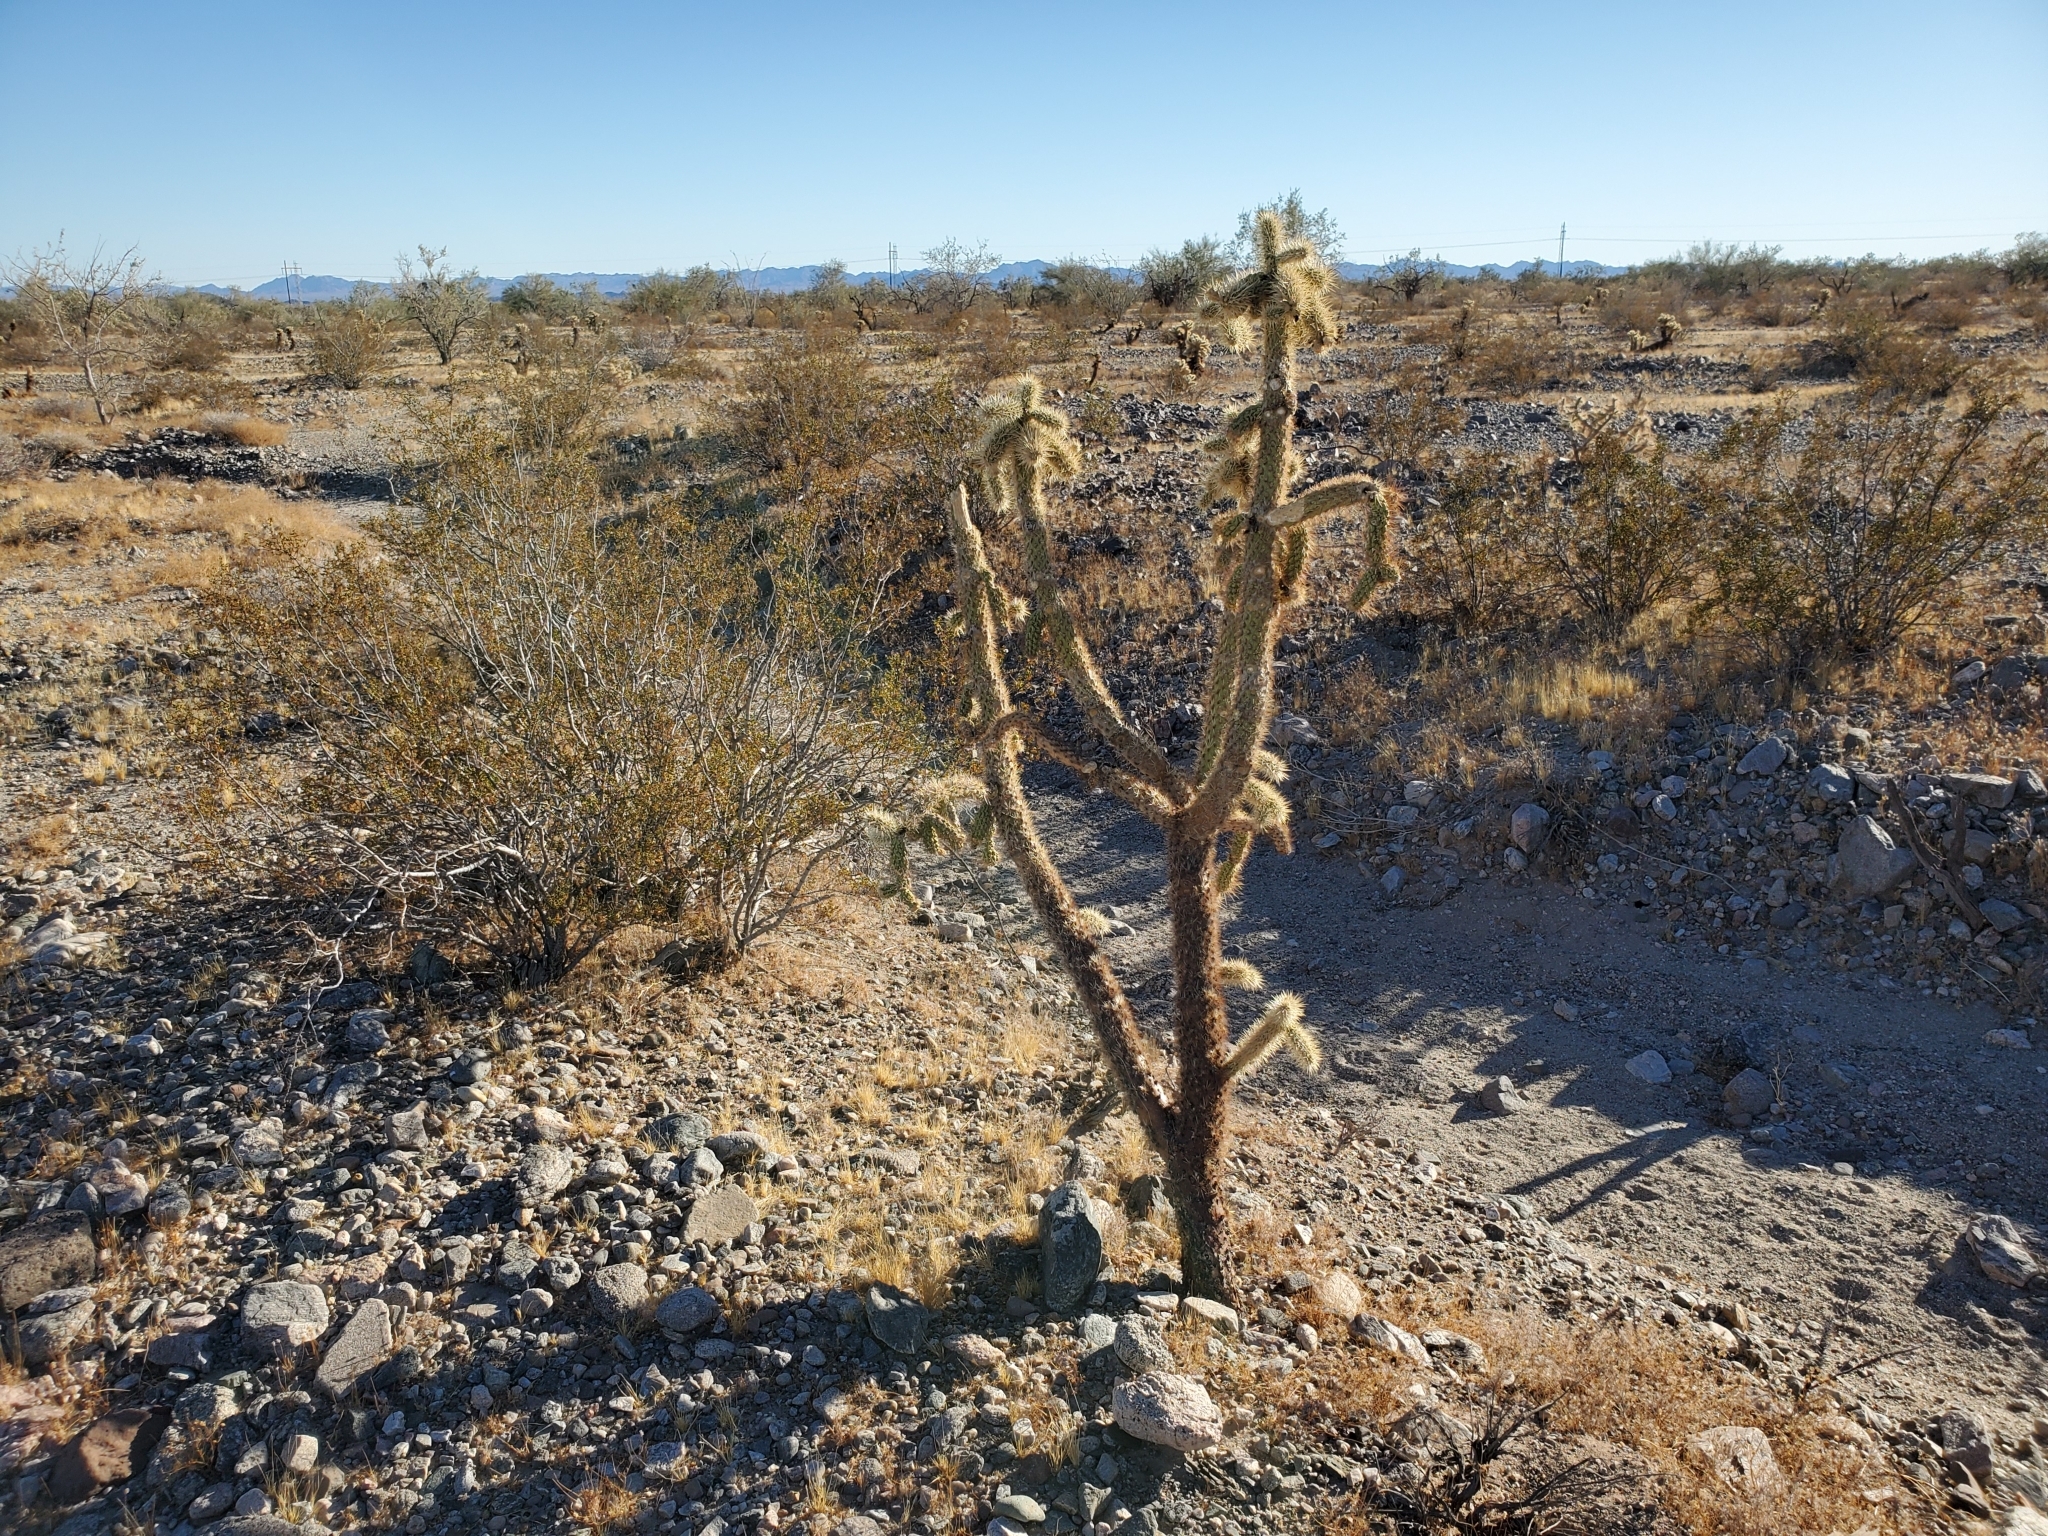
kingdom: Plantae
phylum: Tracheophyta
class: Magnoliopsida
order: Caryophyllales
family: Cactaceae
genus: Cylindropuntia
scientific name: Cylindropuntia munzii
